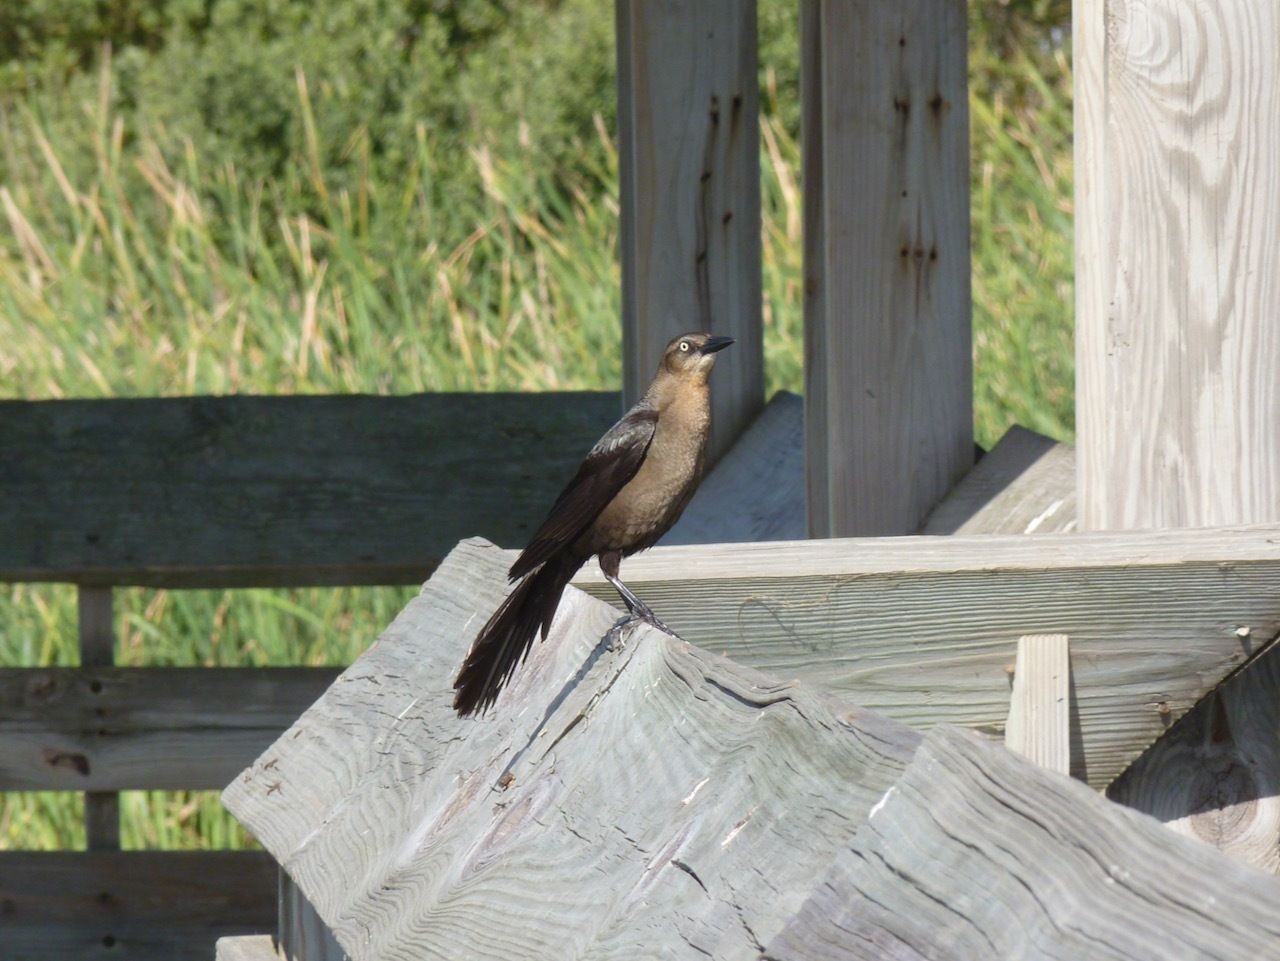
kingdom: Animalia
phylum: Chordata
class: Aves
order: Passeriformes
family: Icteridae
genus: Quiscalus
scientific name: Quiscalus mexicanus
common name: Great-tailed grackle
